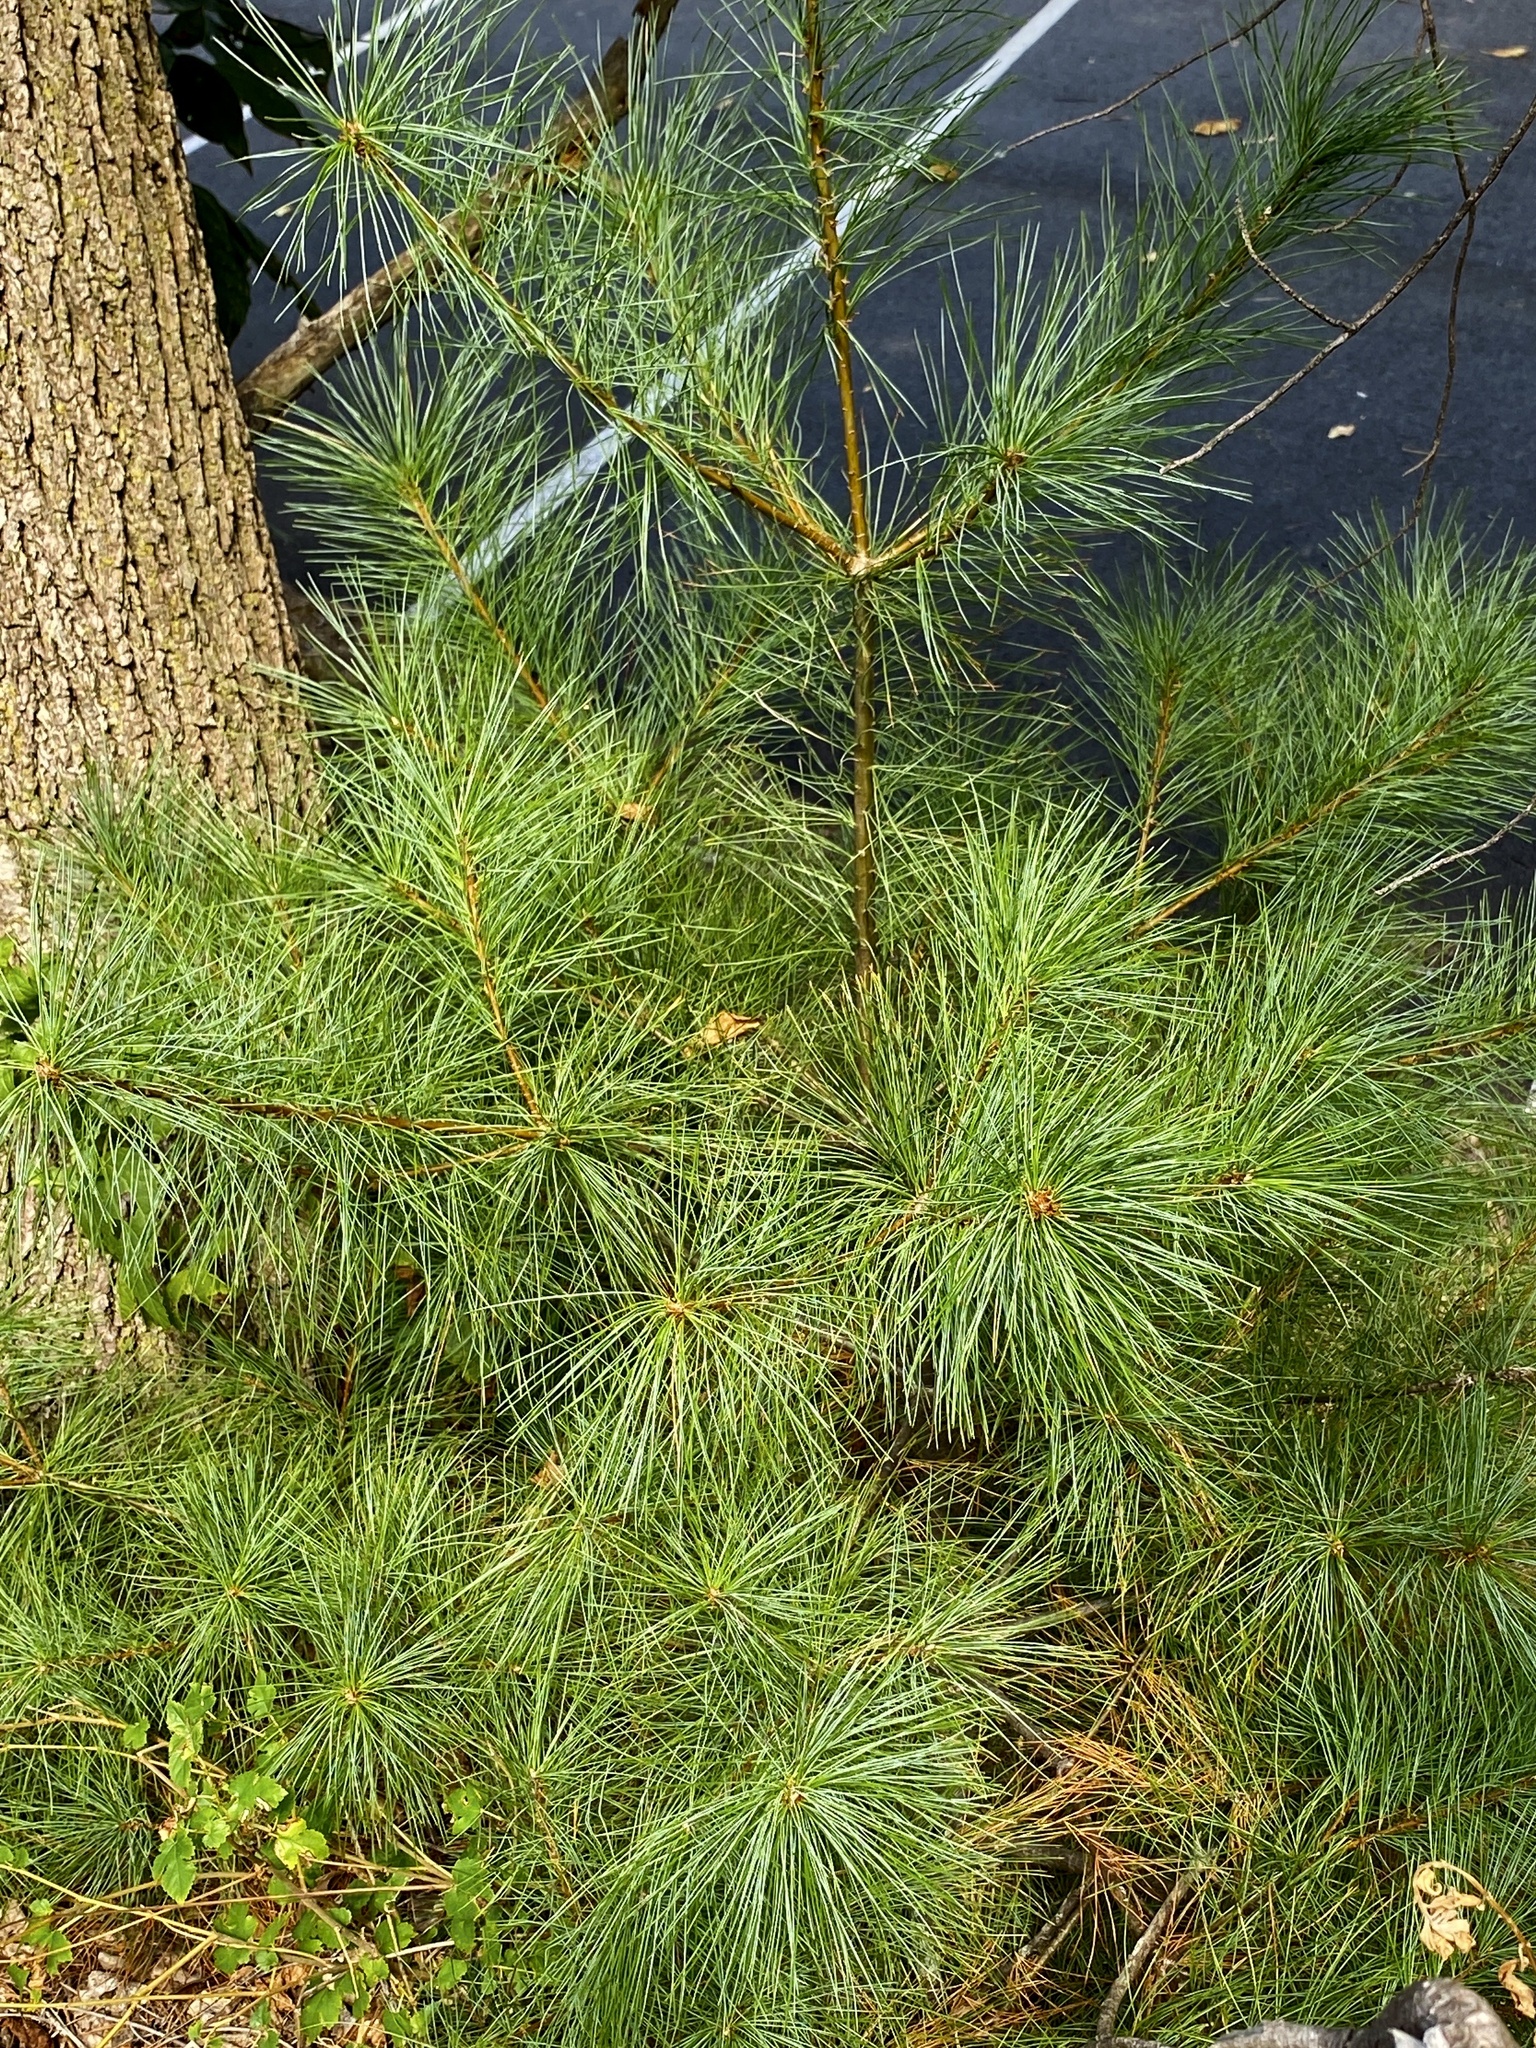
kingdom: Plantae
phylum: Tracheophyta
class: Pinopsida
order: Pinales
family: Pinaceae
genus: Pinus
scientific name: Pinus strobus
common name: Weymouth pine
